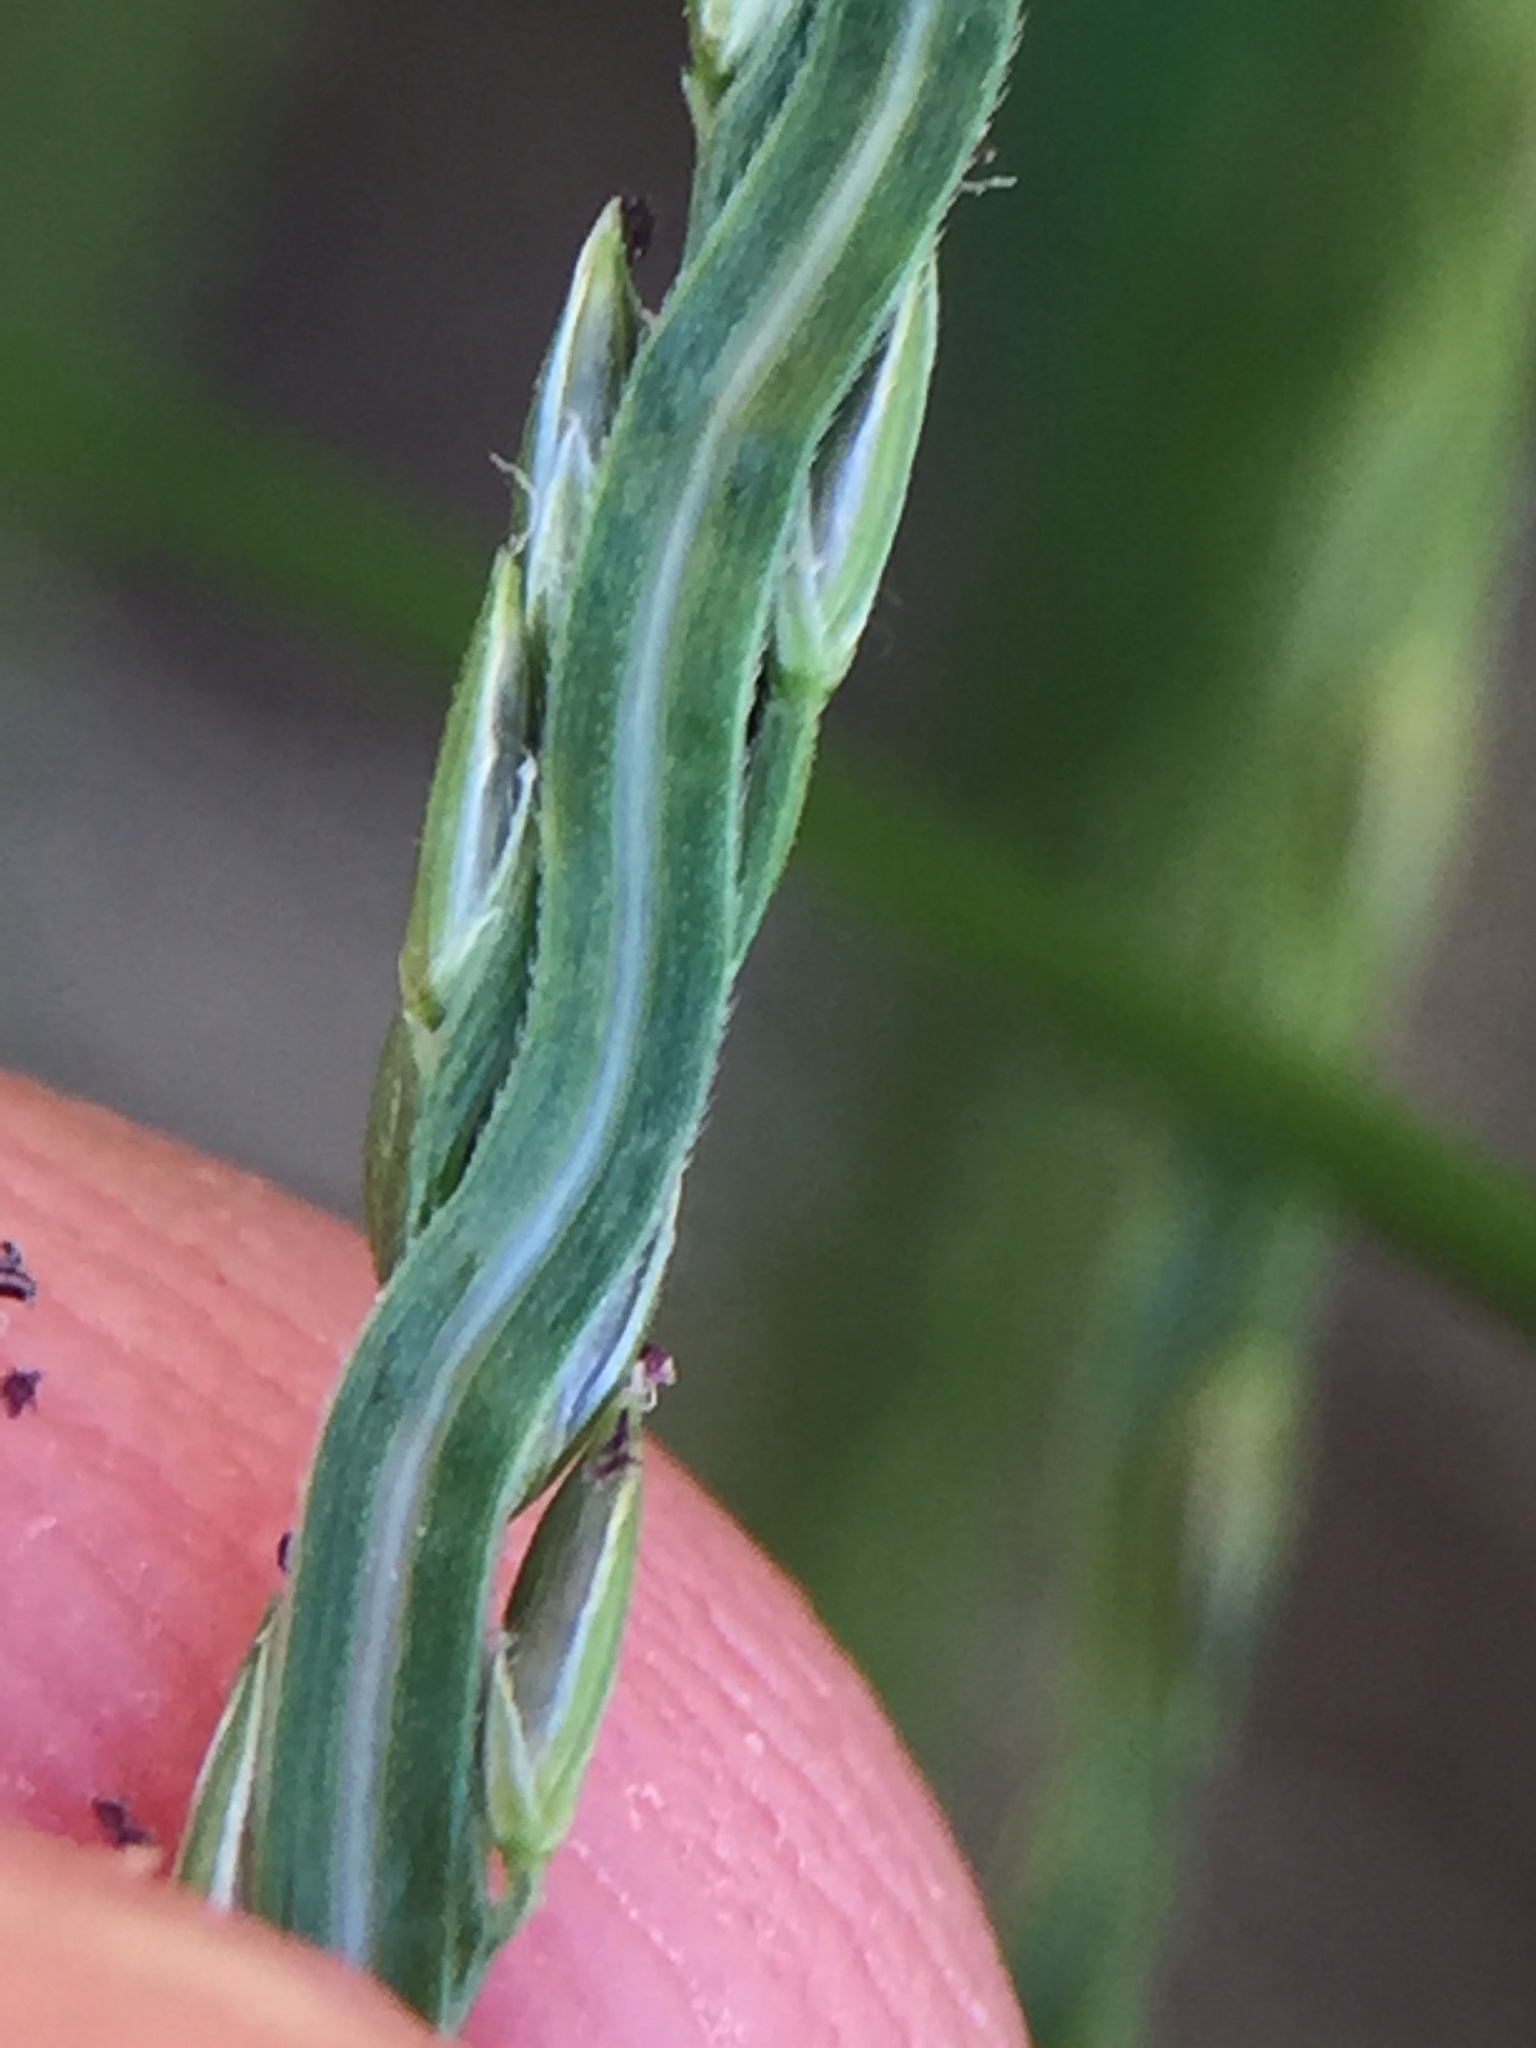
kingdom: Plantae
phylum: Tracheophyta
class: Liliopsida
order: Poales
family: Poaceae
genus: Digitaria
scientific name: Digitaria sanguinalis
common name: Hairy crabgrass
